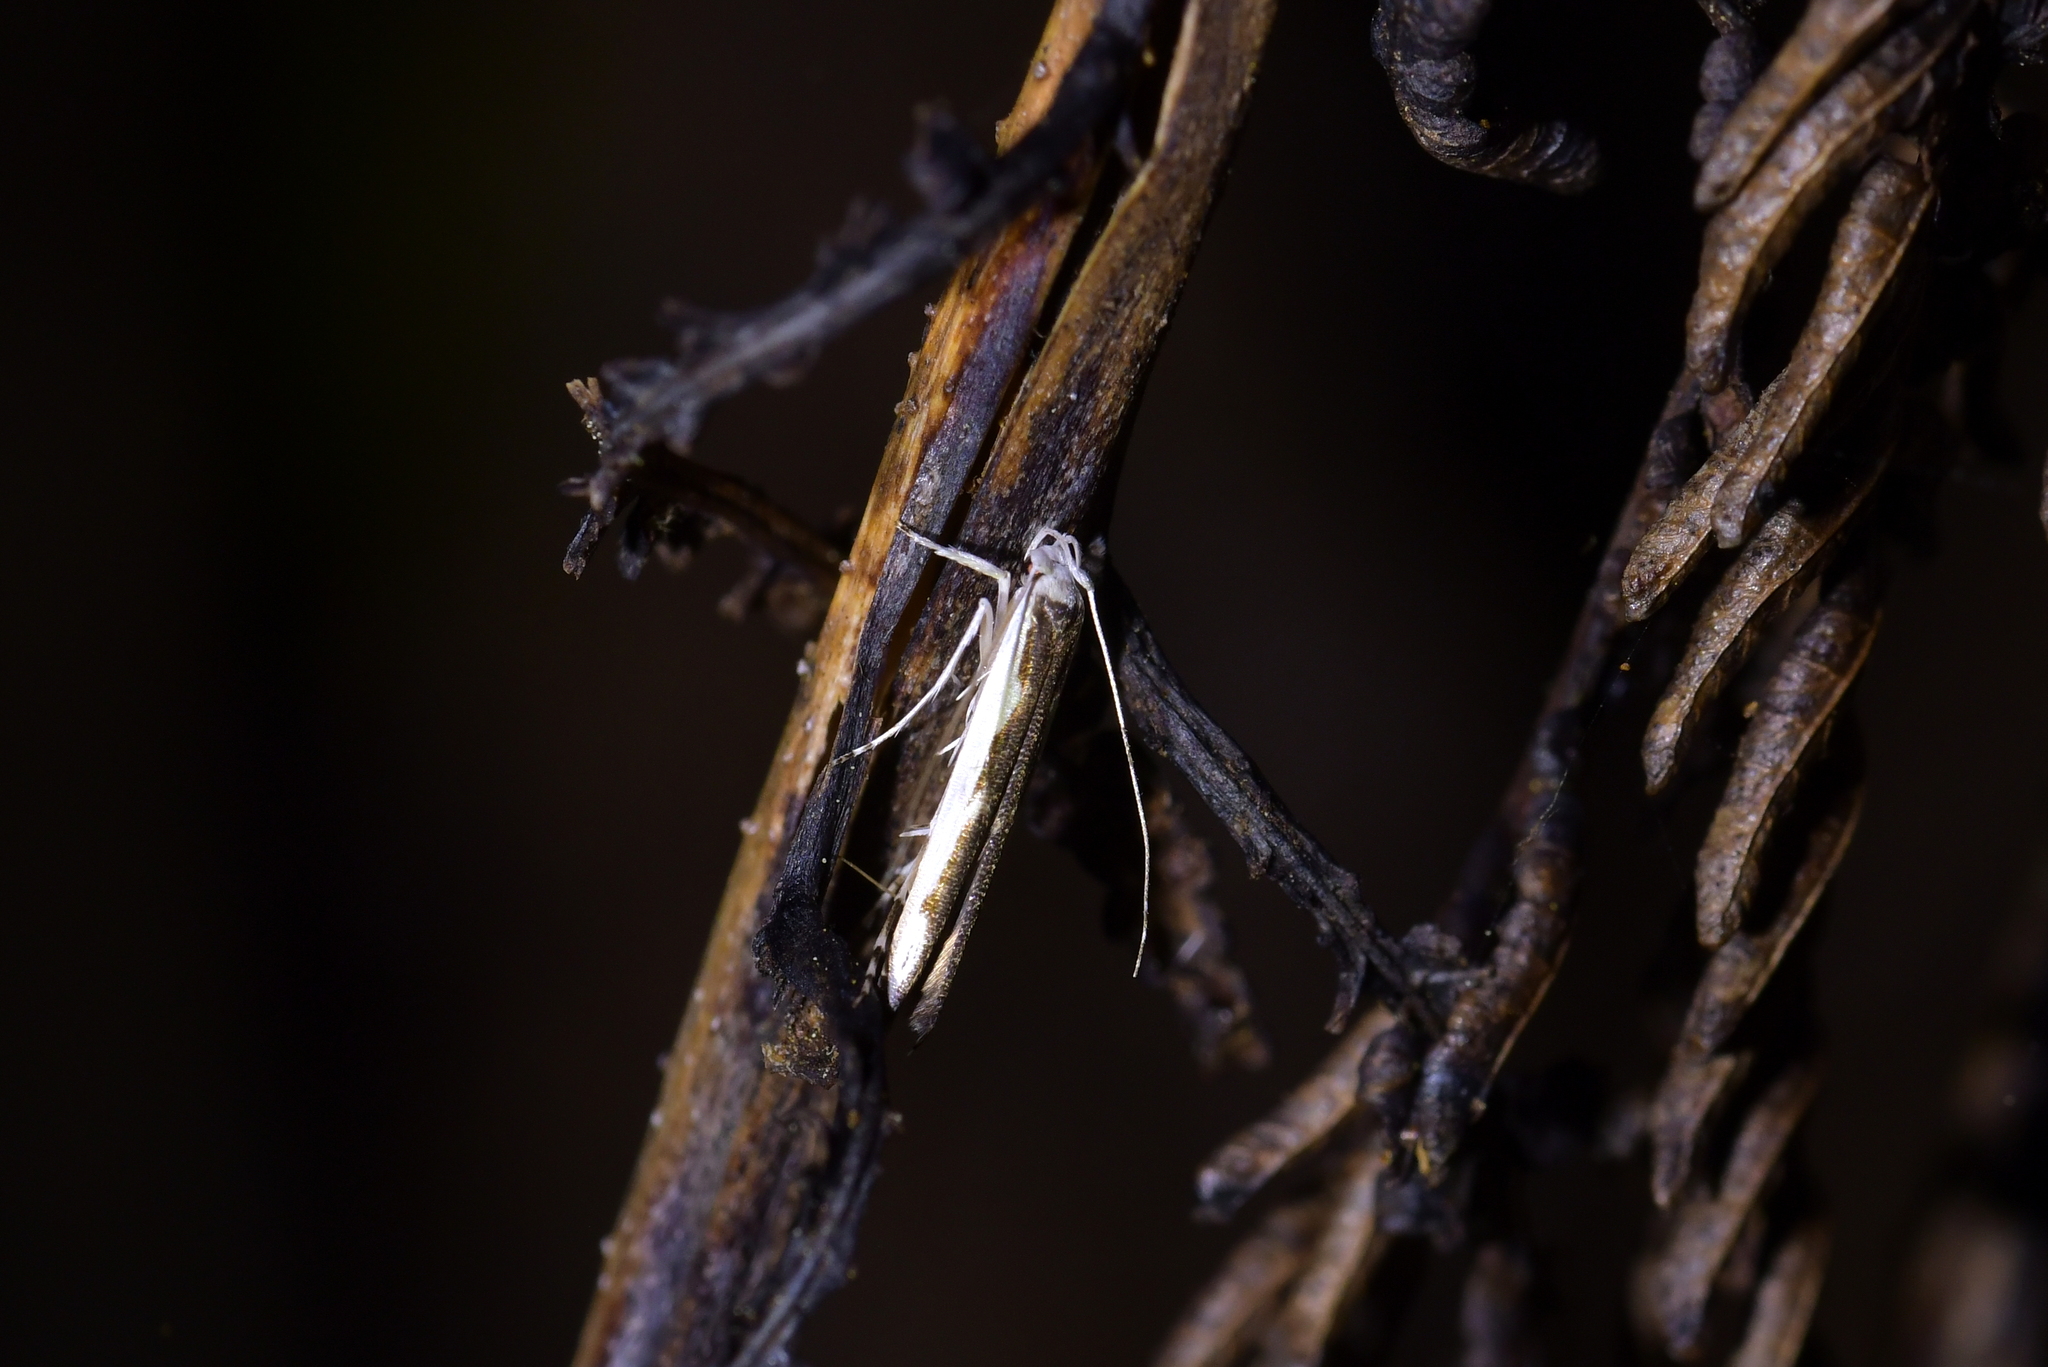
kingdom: Animalia
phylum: Arthropoda
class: Insecta
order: Lepidoptera
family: Roeslerstammiidae
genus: Vanicela
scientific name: Vanicela disjunctella
